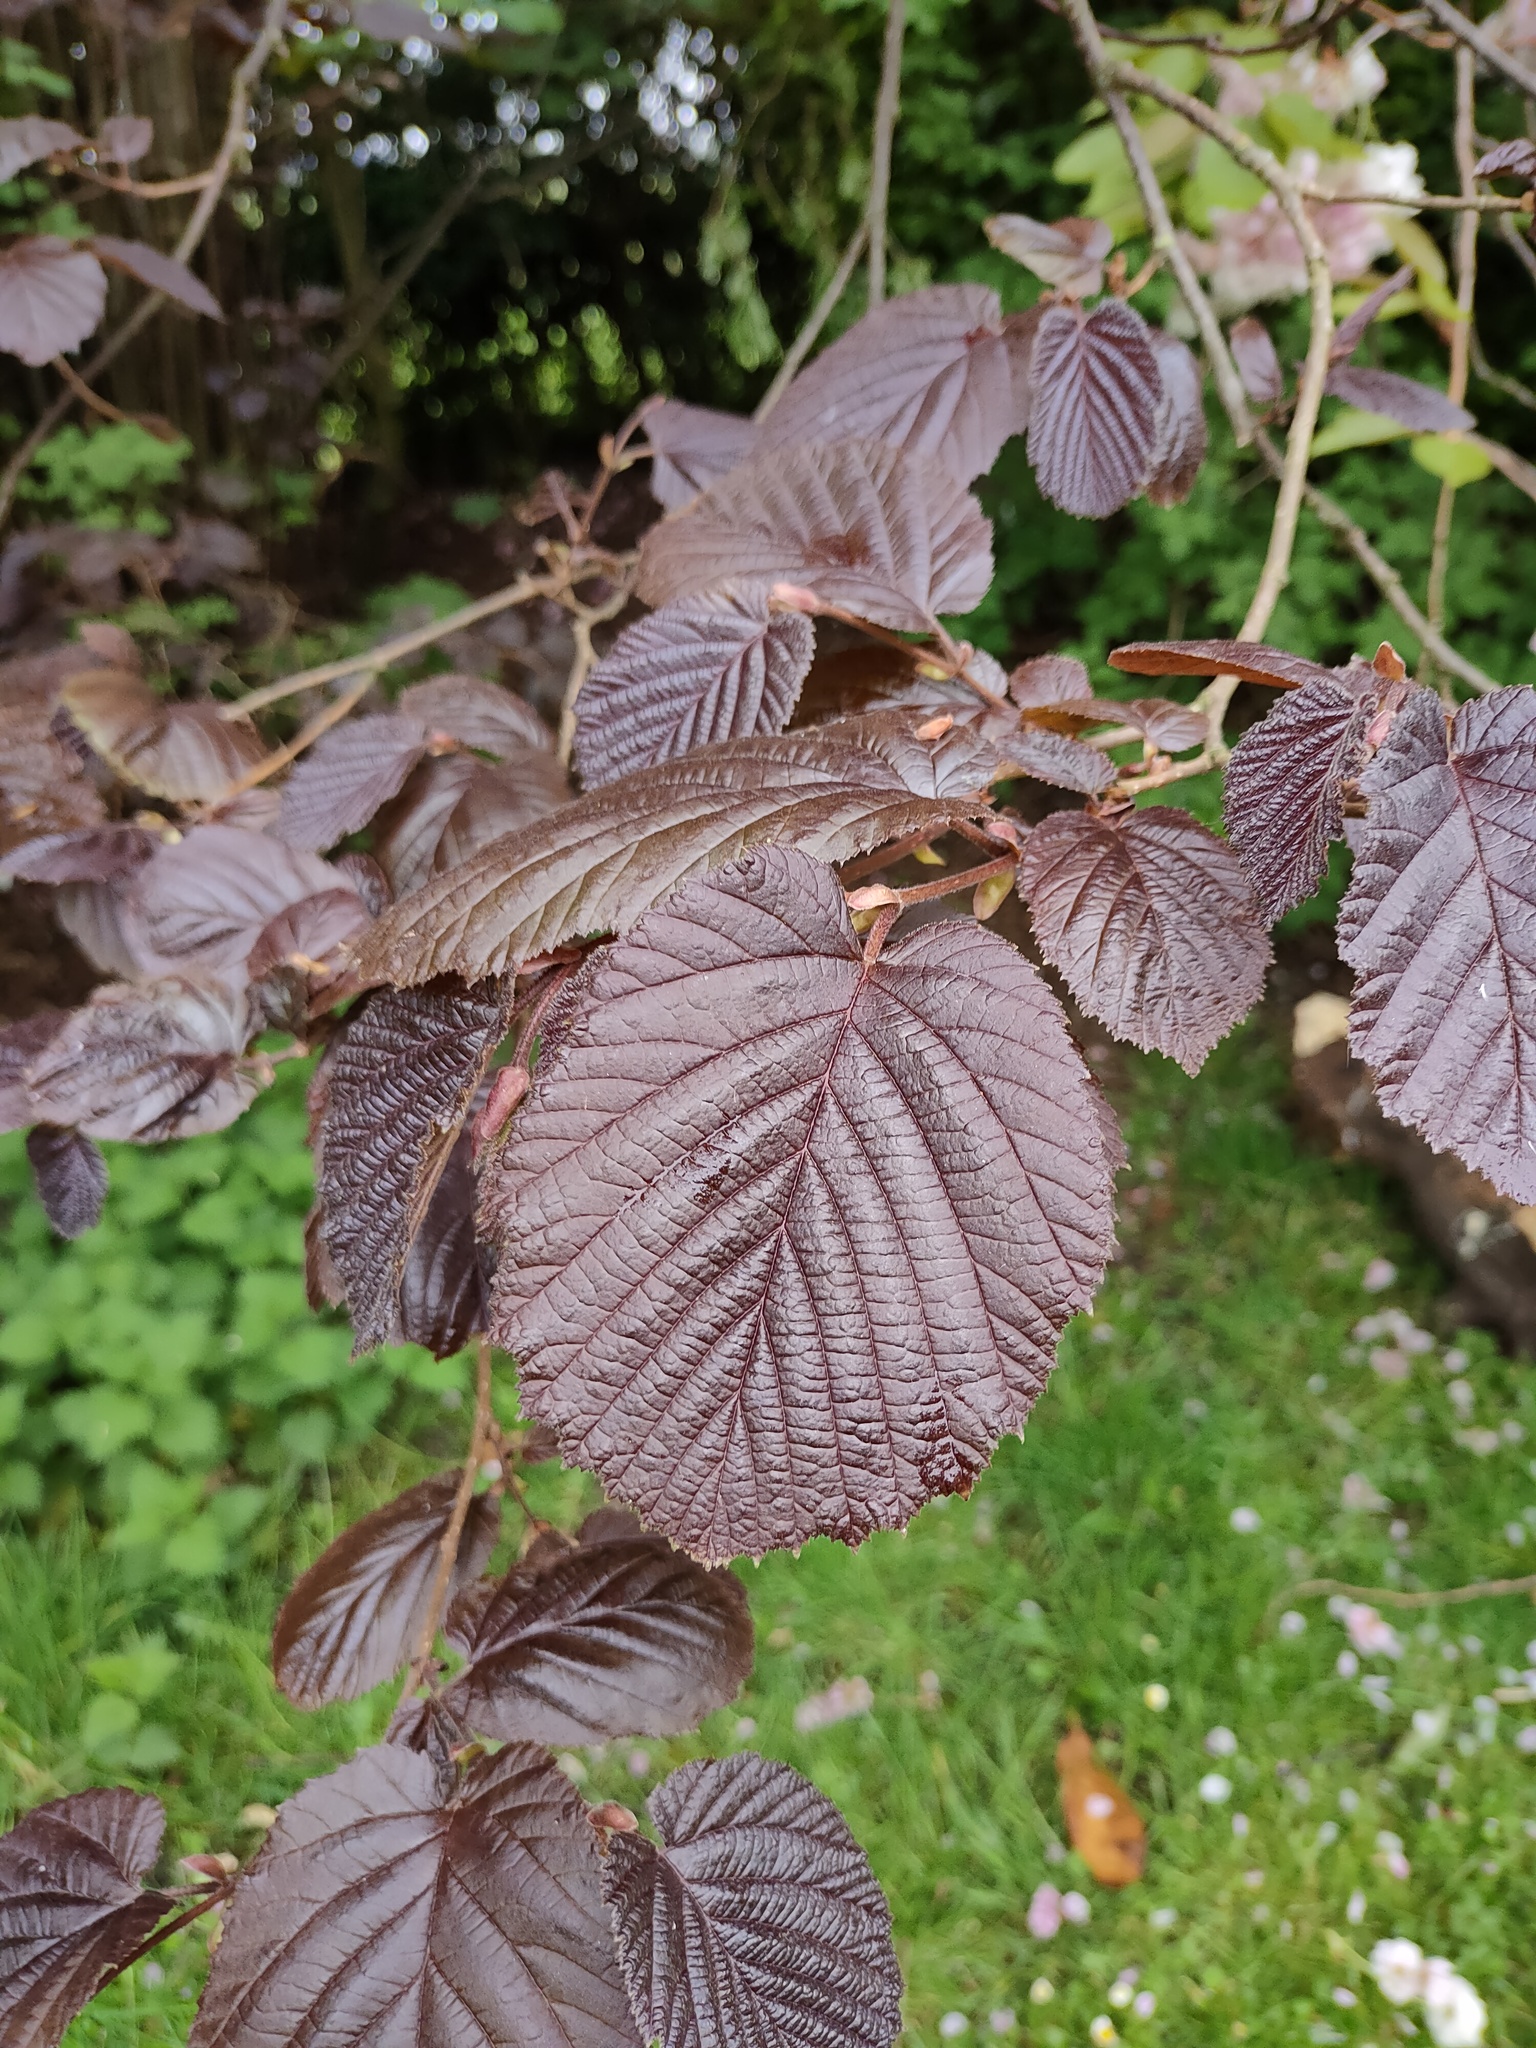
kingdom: Plantae
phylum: Tracheophyta
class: Magnoliopsida
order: Fagales
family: Betulaceae
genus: Corylus
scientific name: Corylus avellana
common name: European hazel
